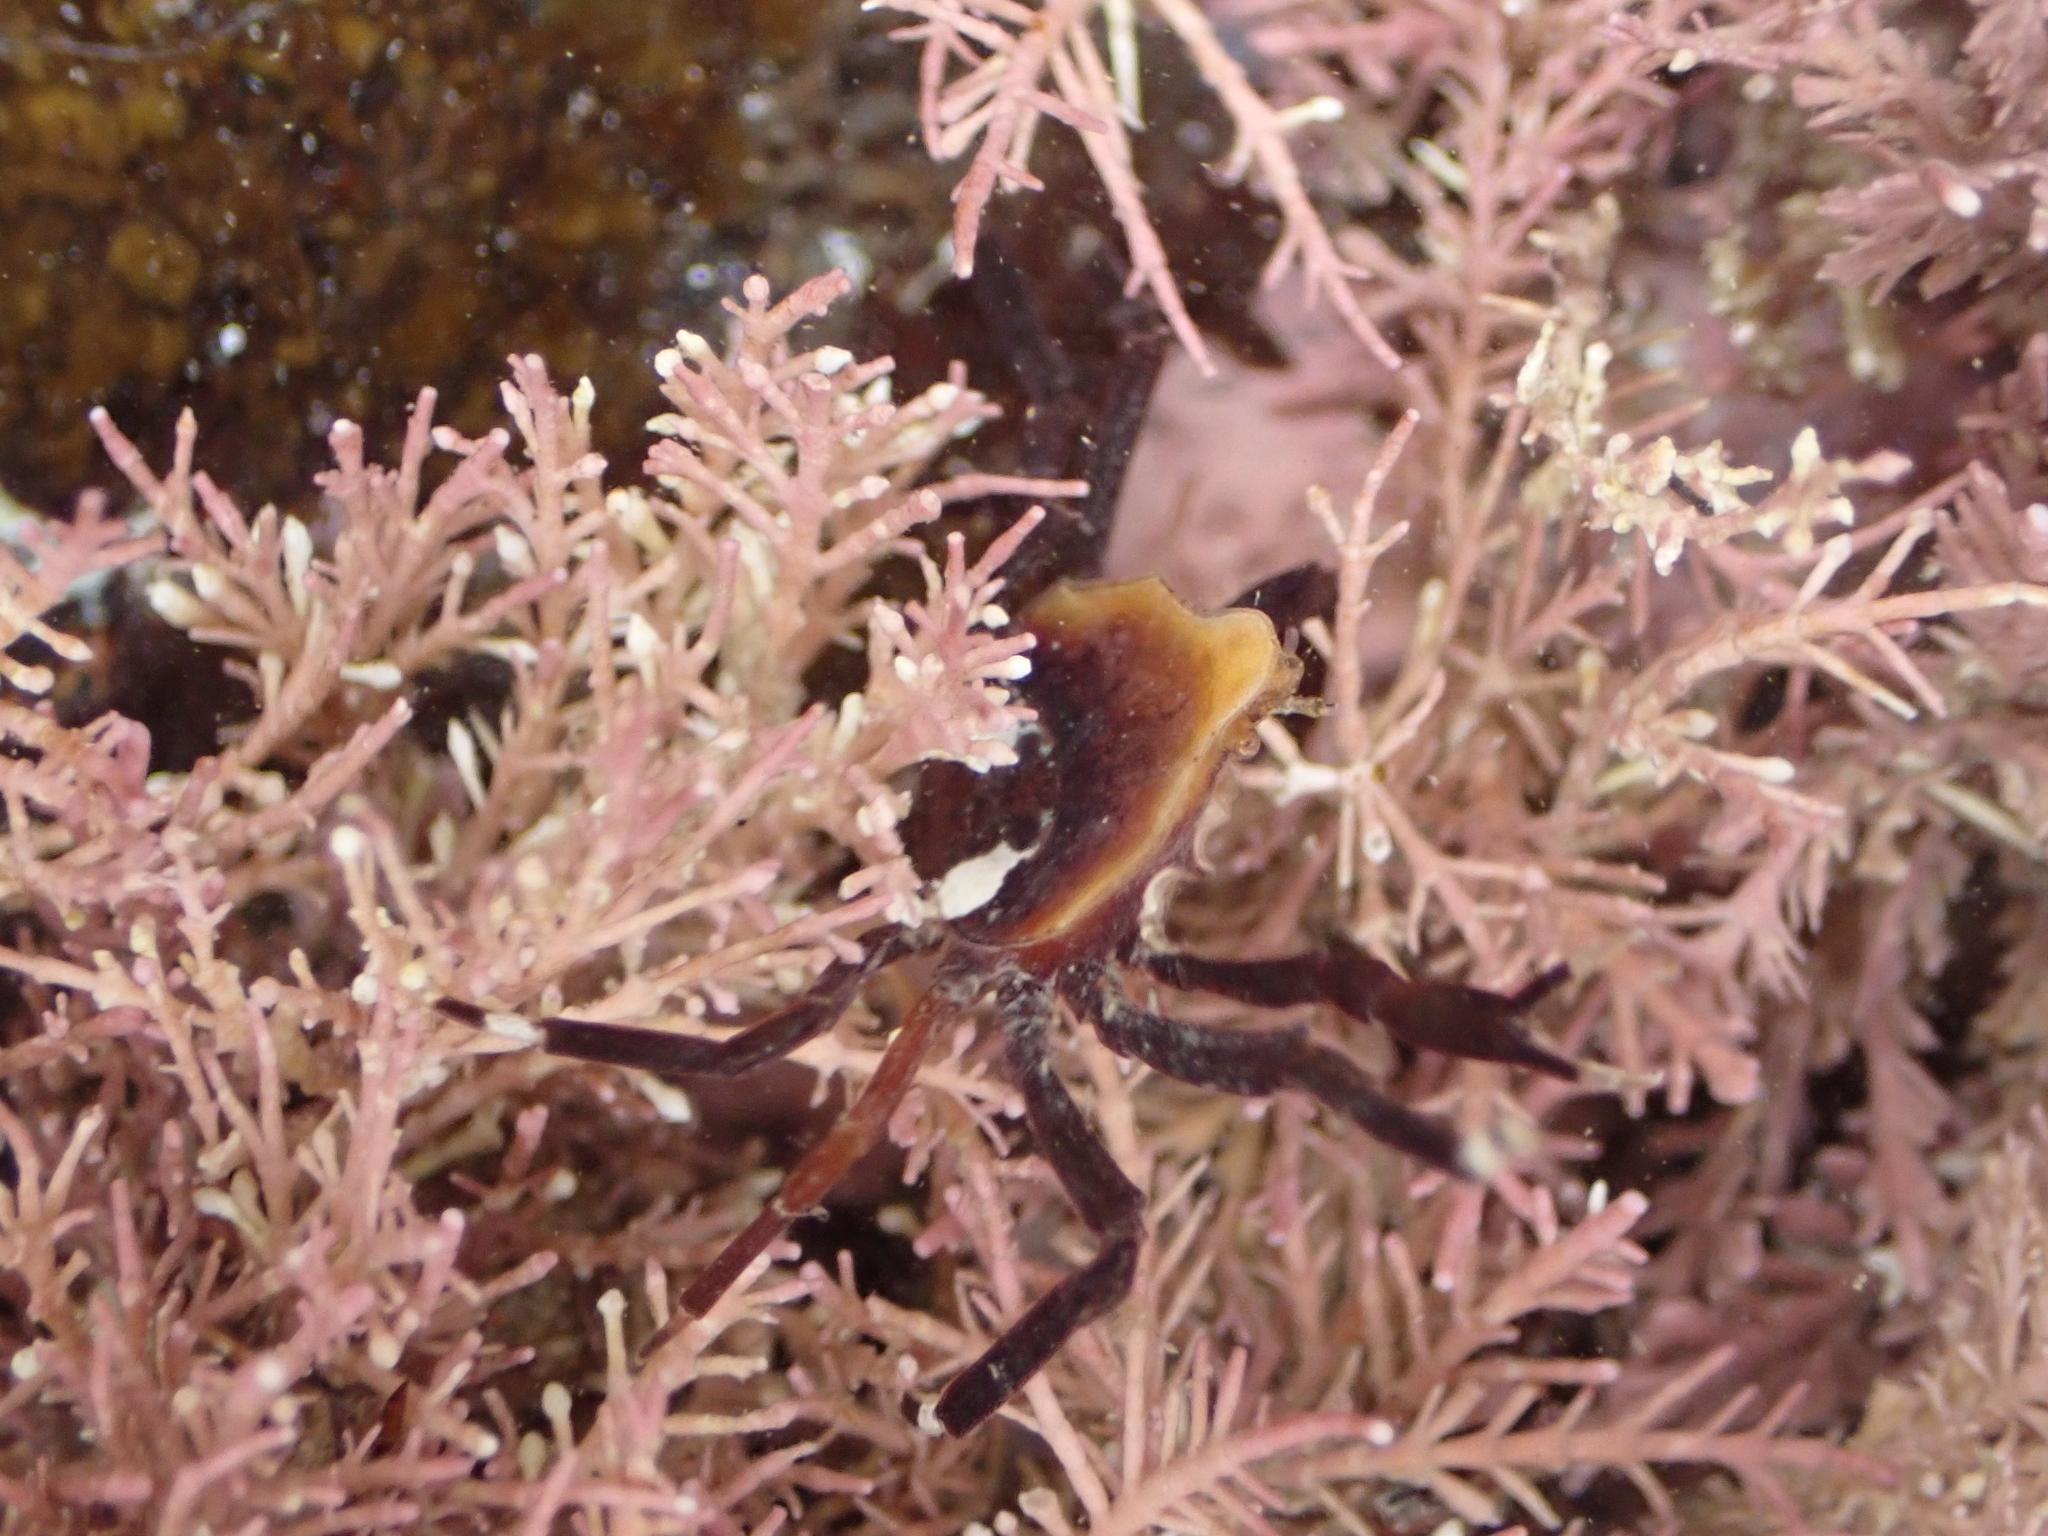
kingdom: Animalia
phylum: Arthropoda
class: Malacostraca
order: Decapoda
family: Hymenosomatidae
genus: Elamena
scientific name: Elamena producta
